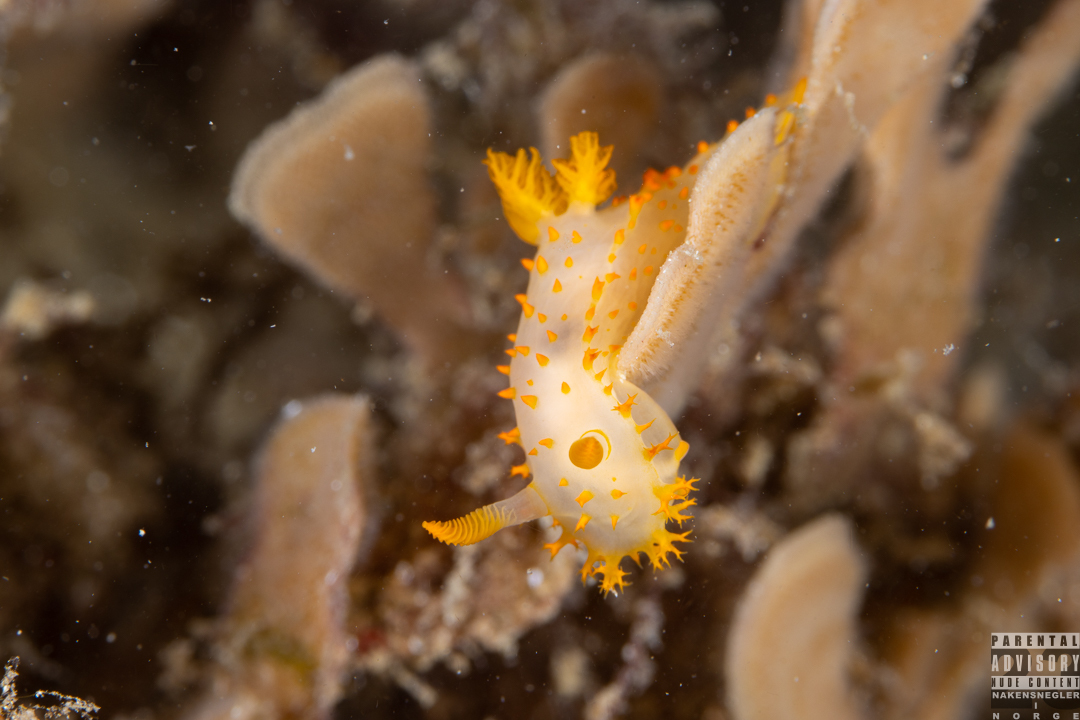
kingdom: Animalia
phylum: Mollusca
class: Gastropoda
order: Nudibranchia
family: Polyceridae
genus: Crimora
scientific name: Crimora papillata
